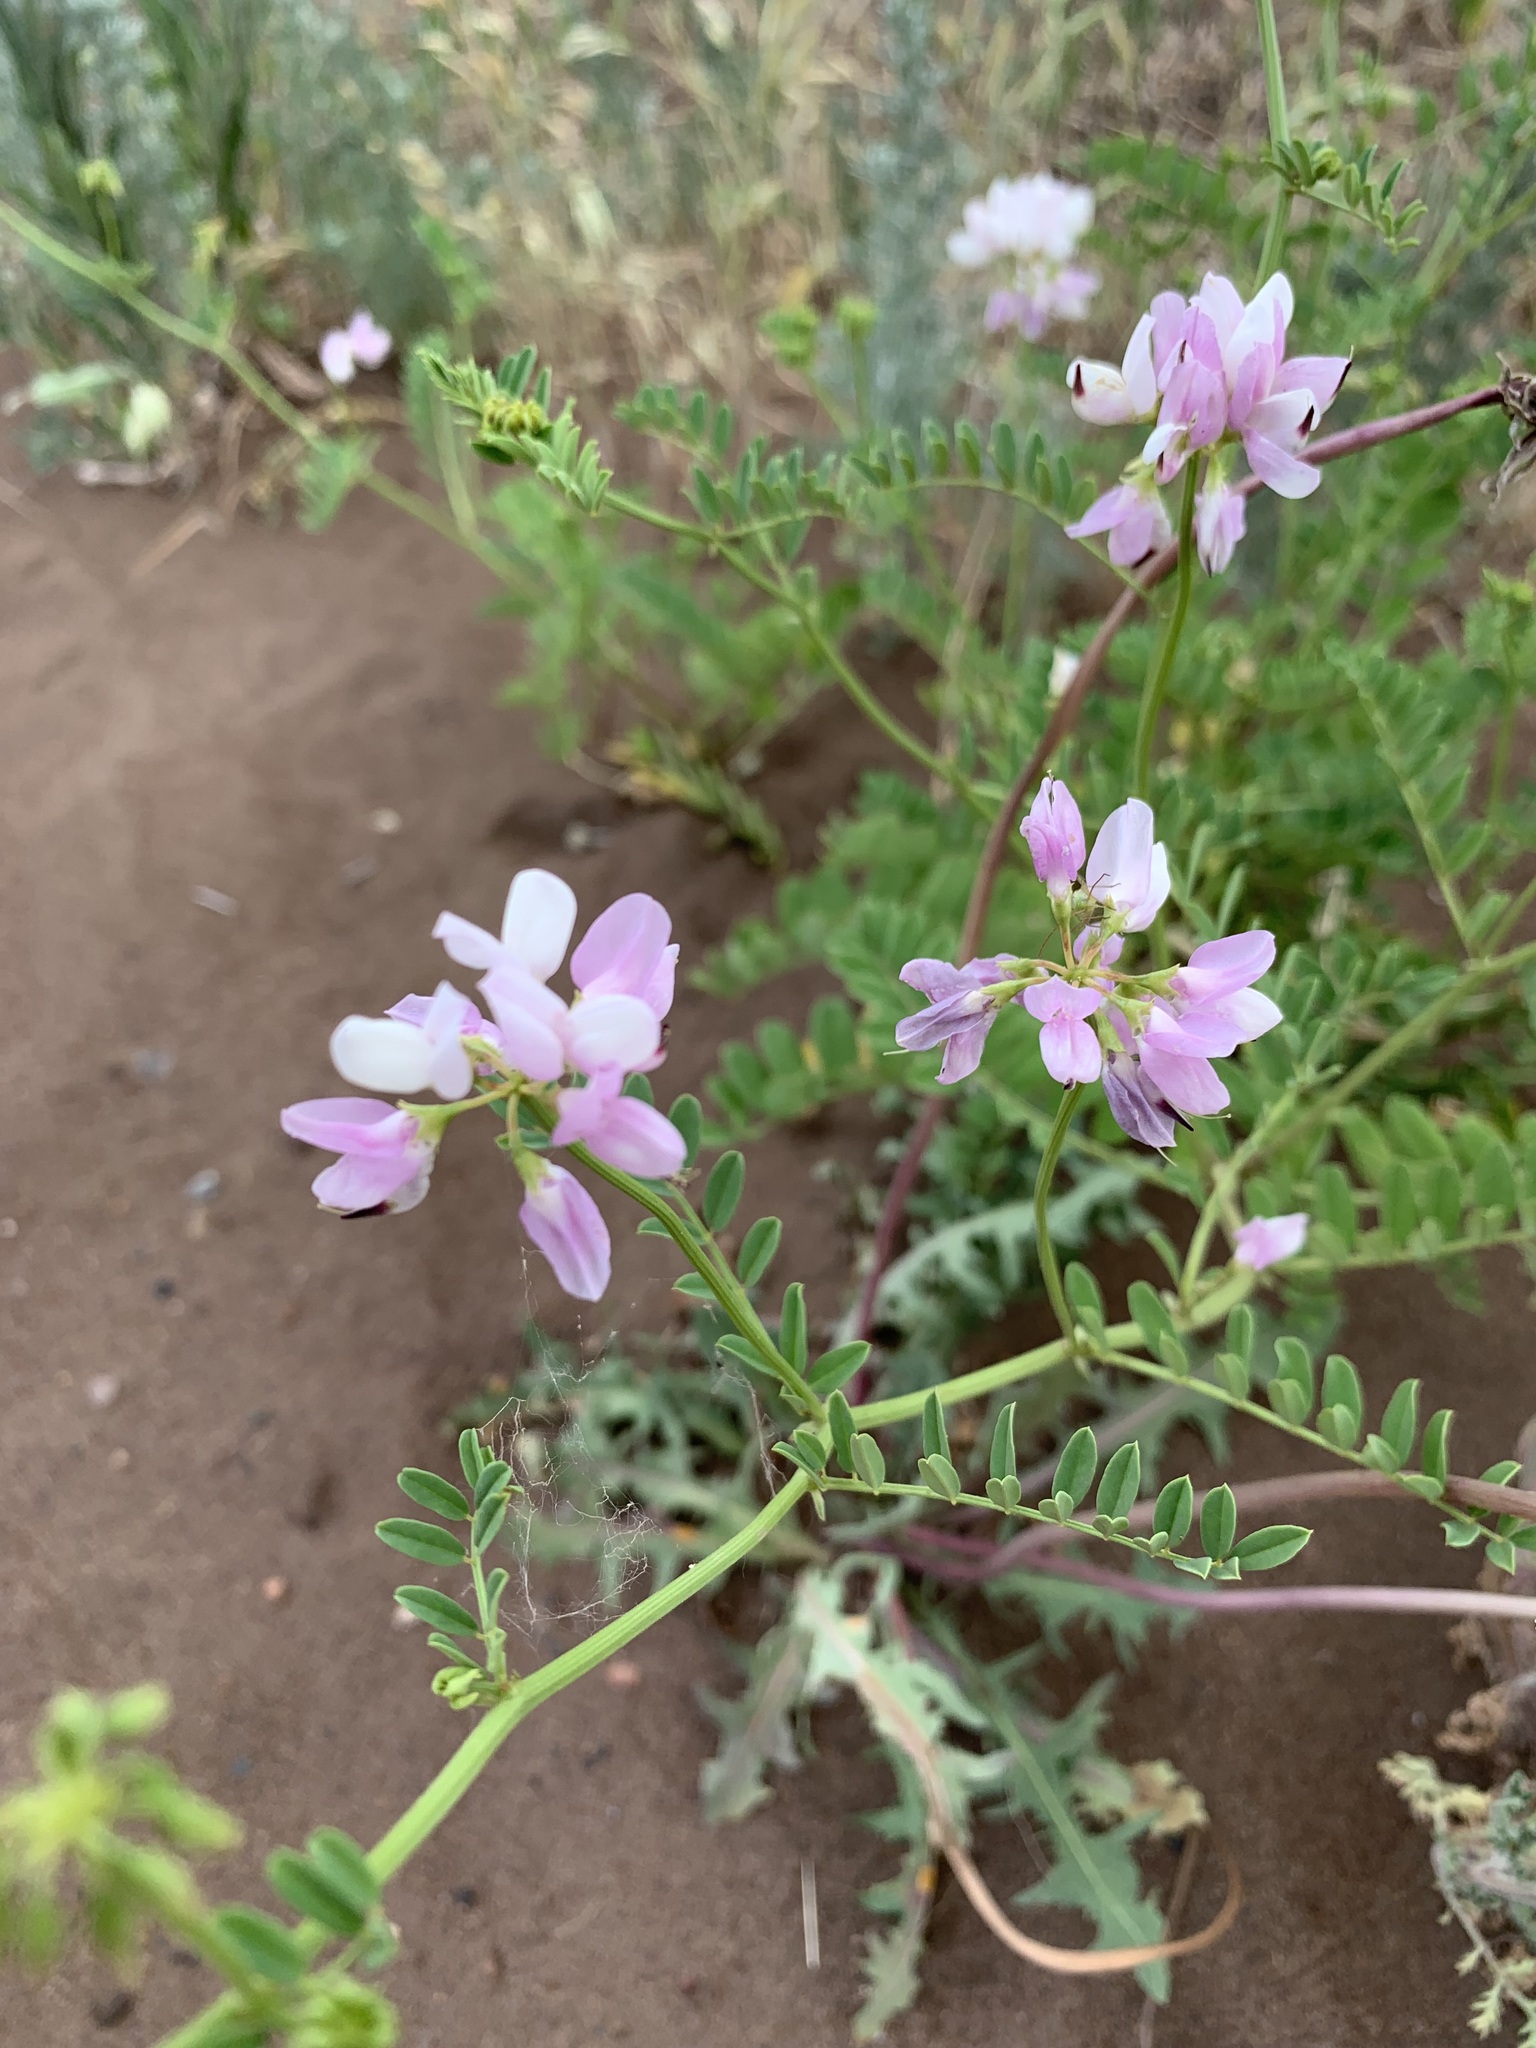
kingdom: Plantae
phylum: Tracheophyta
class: Magnoliopsida
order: Fabales
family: Fabaceae
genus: Coronilla
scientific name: Coronilla varia
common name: Crownvetch
